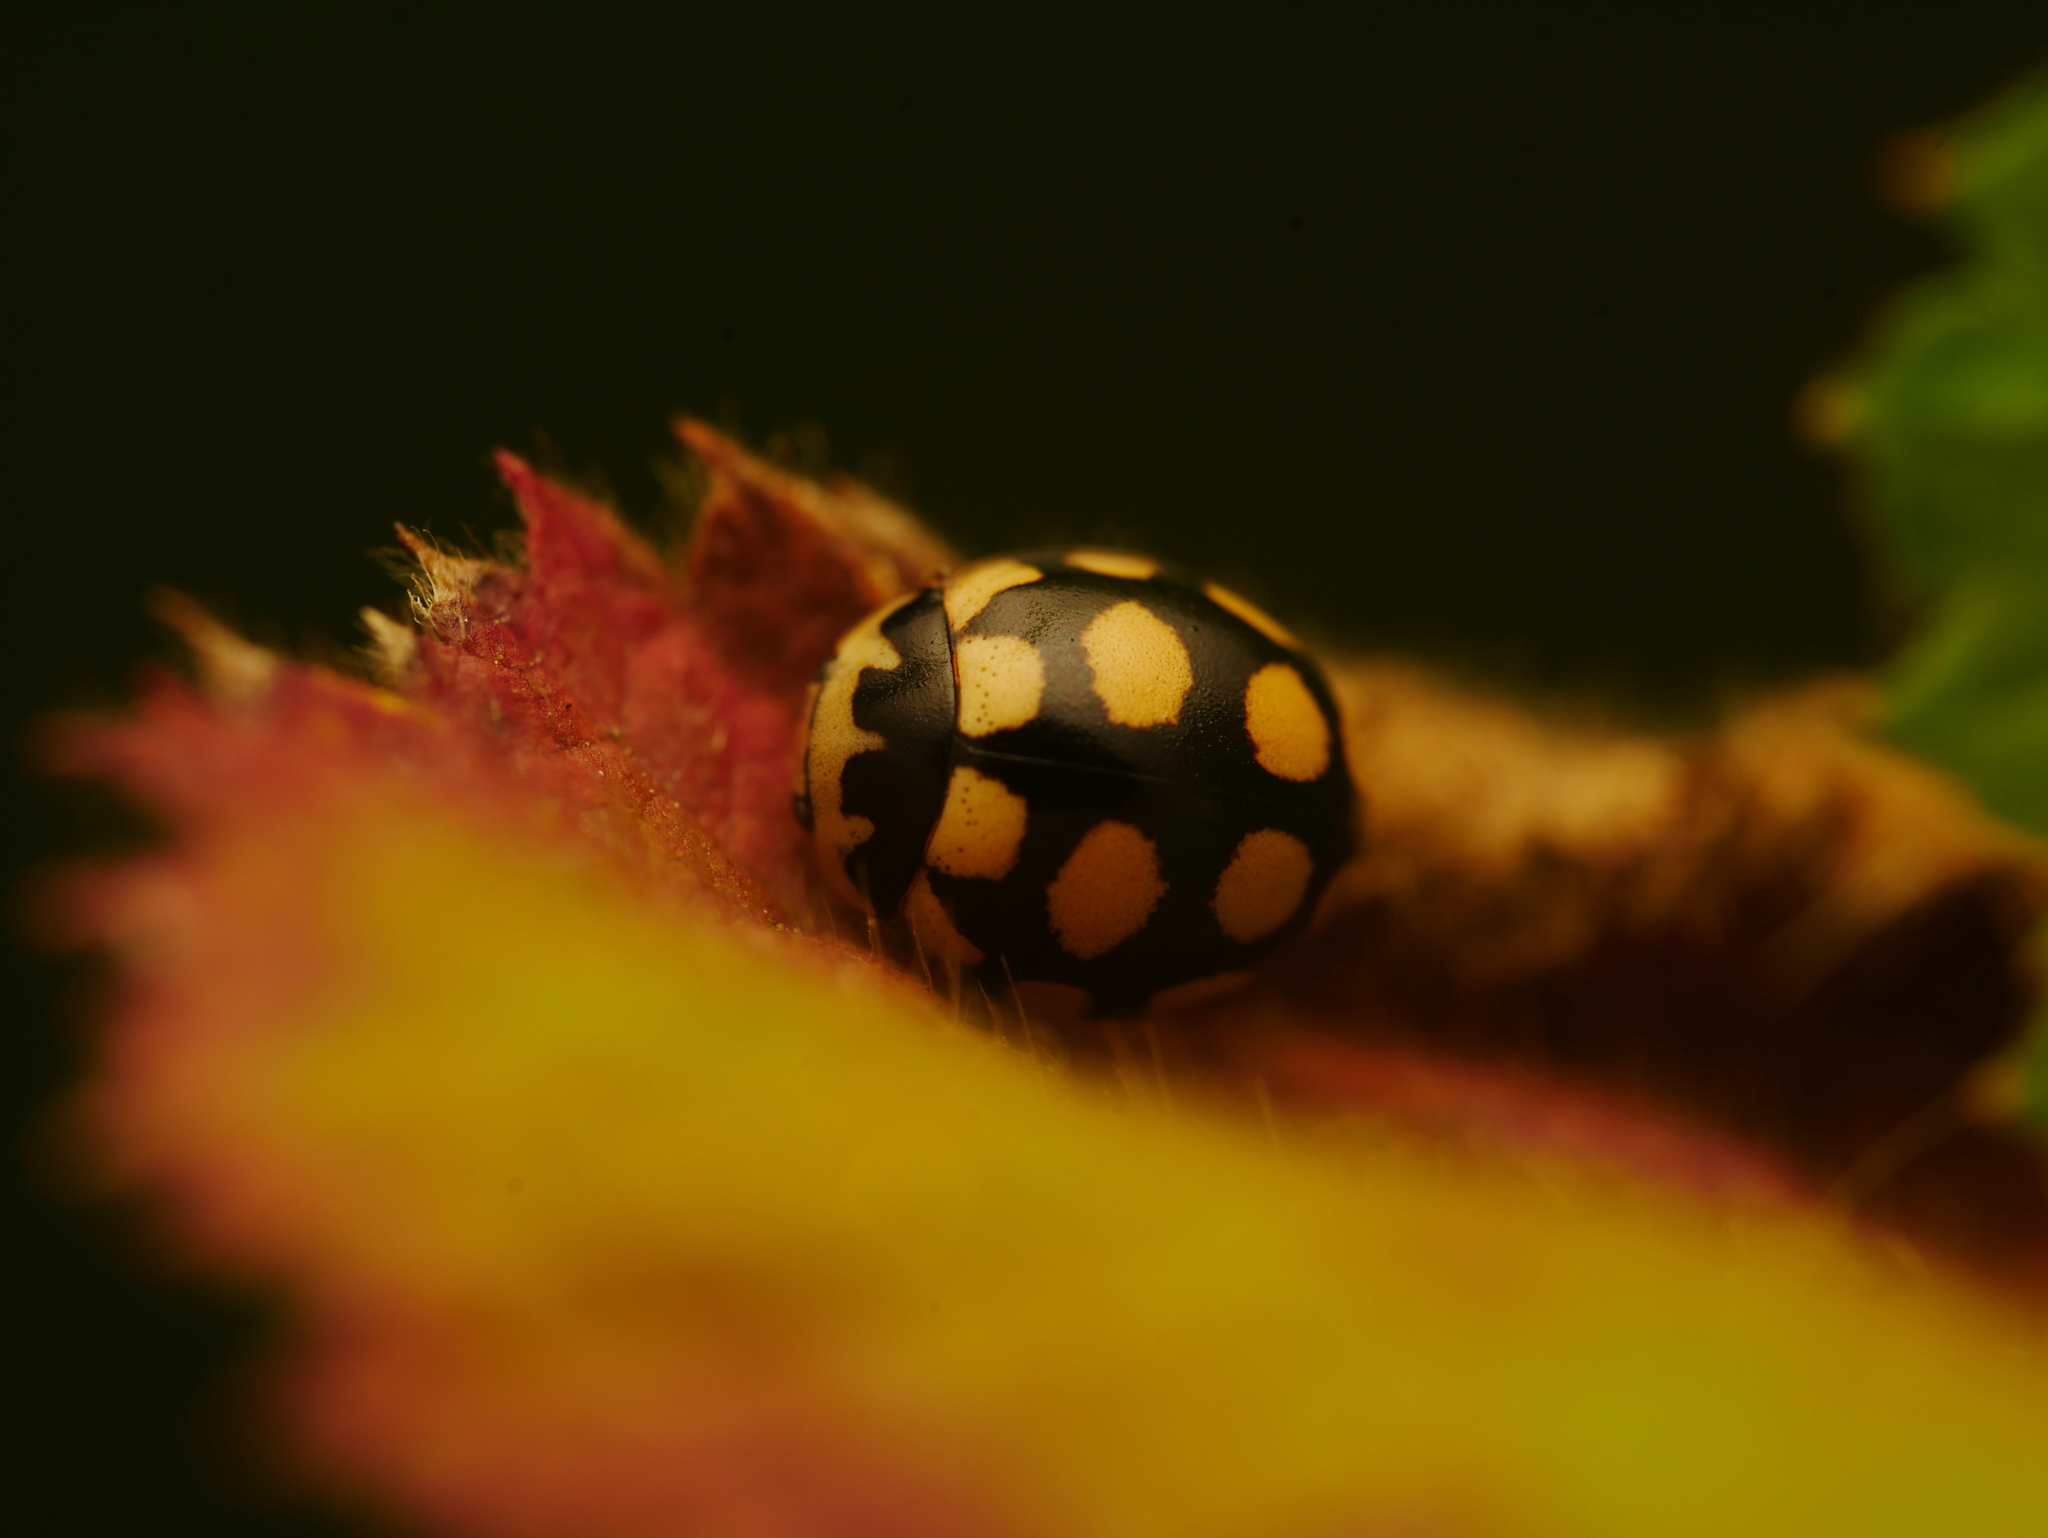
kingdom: Animalia
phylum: Arthropoda
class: Insecta
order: Coleoptera
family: Coccinellidae
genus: Coccinula
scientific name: Coccinula quatuordecimpustulata
